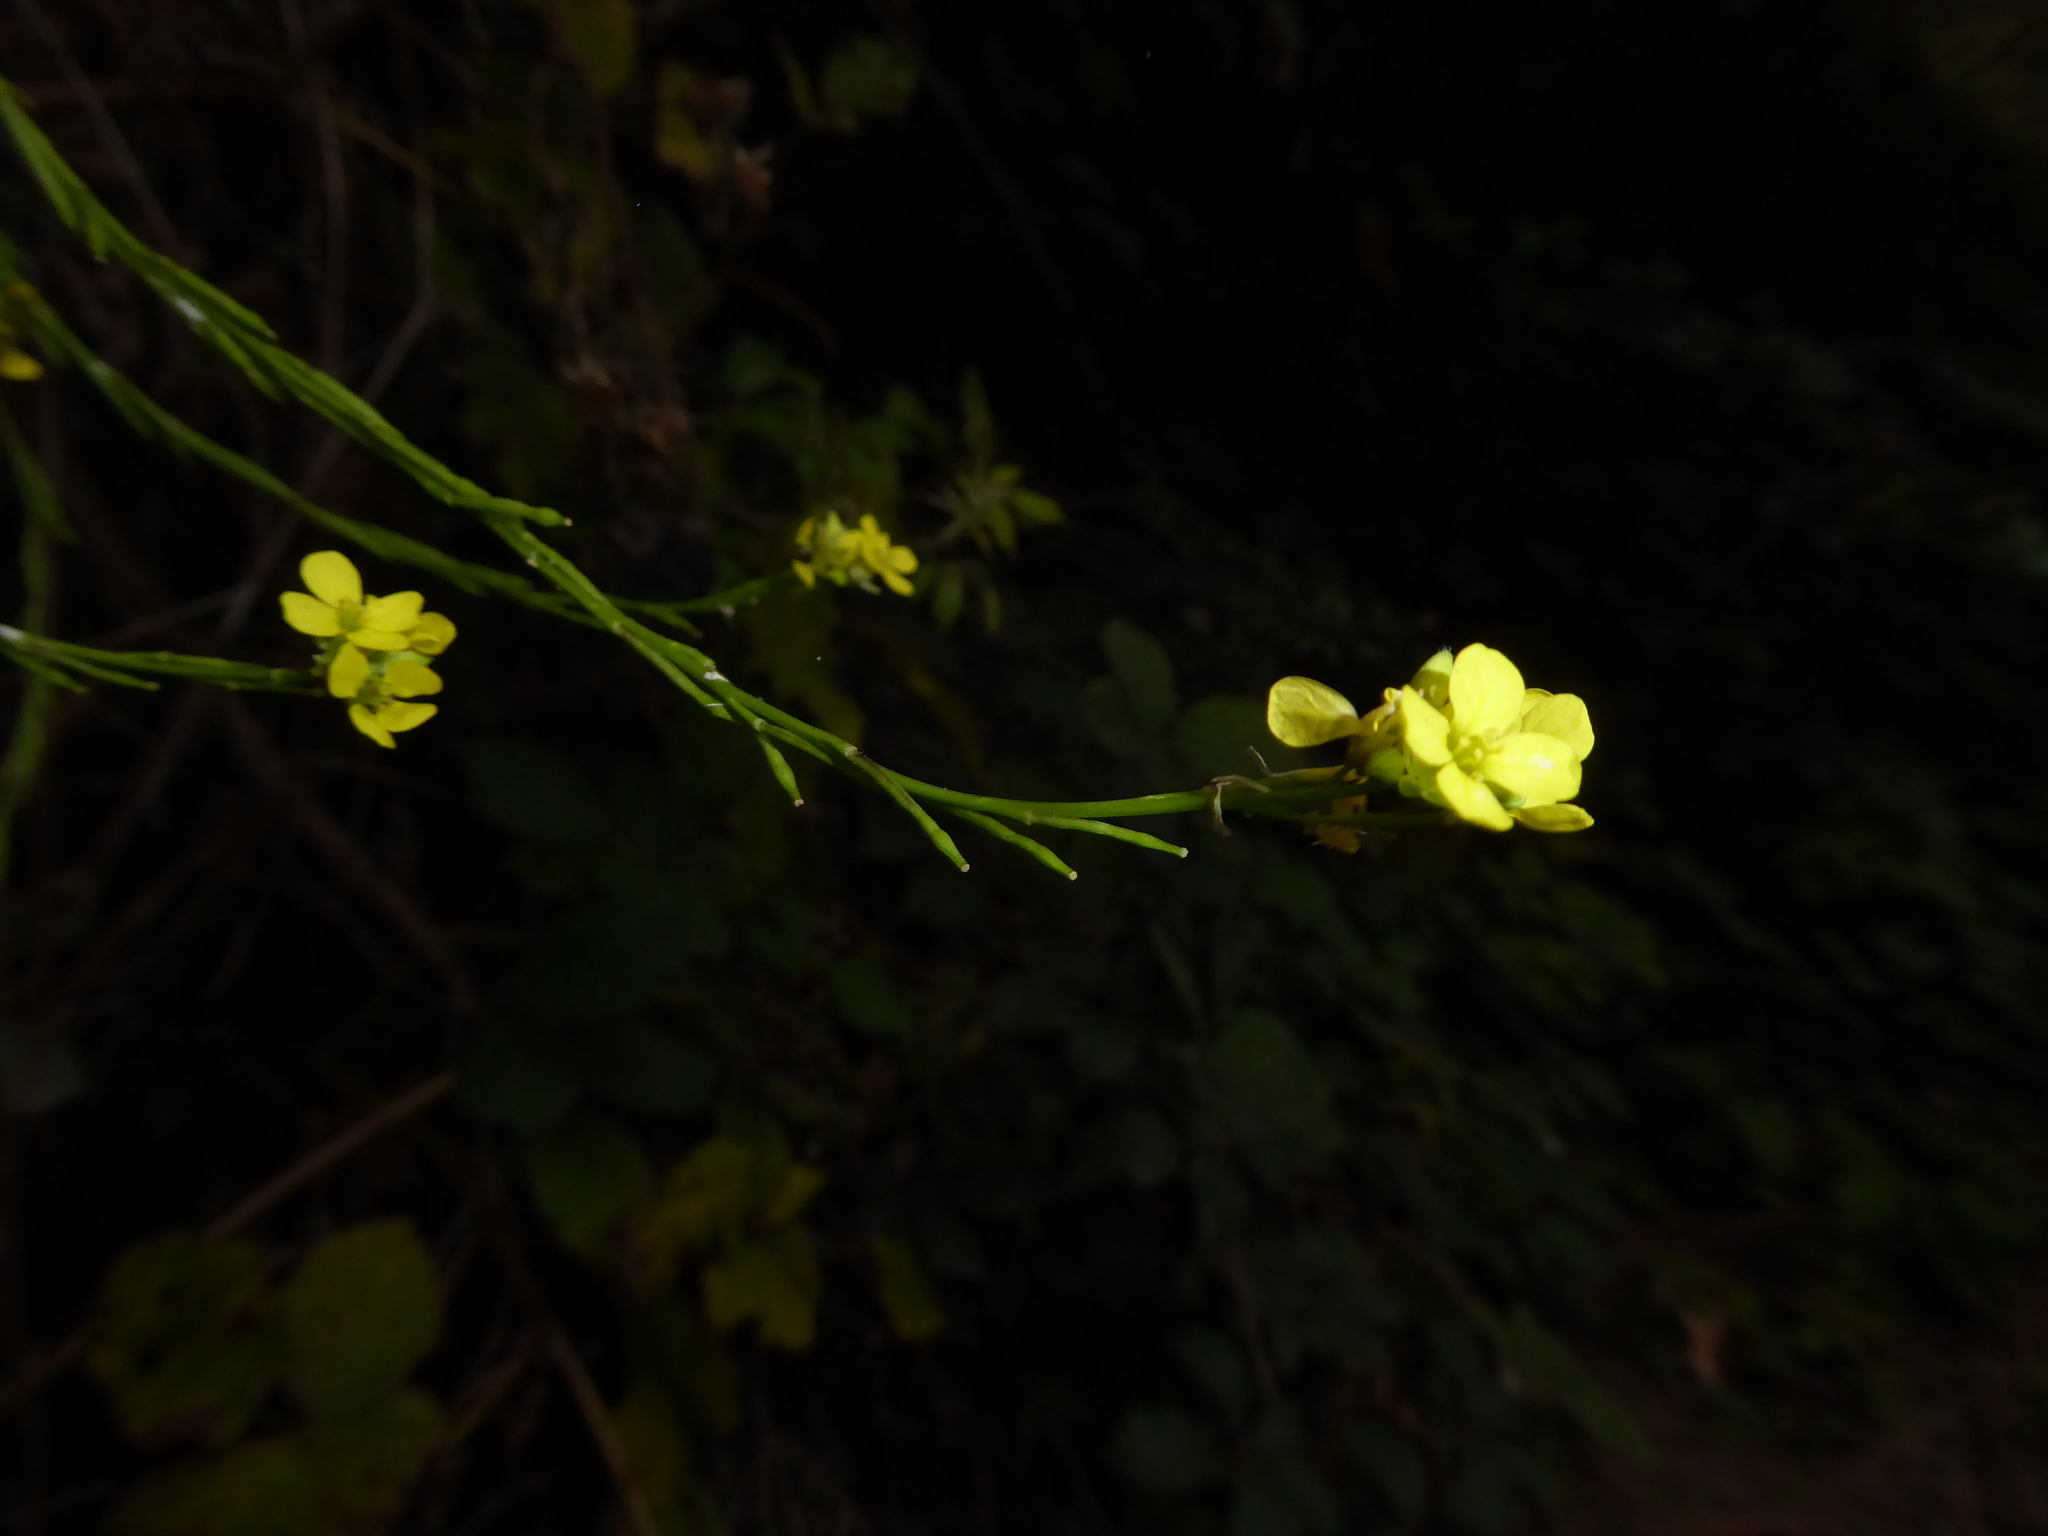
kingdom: Plantae
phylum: Tracheophyta
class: Magnoliopsida
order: Brassicales
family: Brassicaceae
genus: Hirschfeldia
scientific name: Hirschfeldia incana
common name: Hoary mustard
